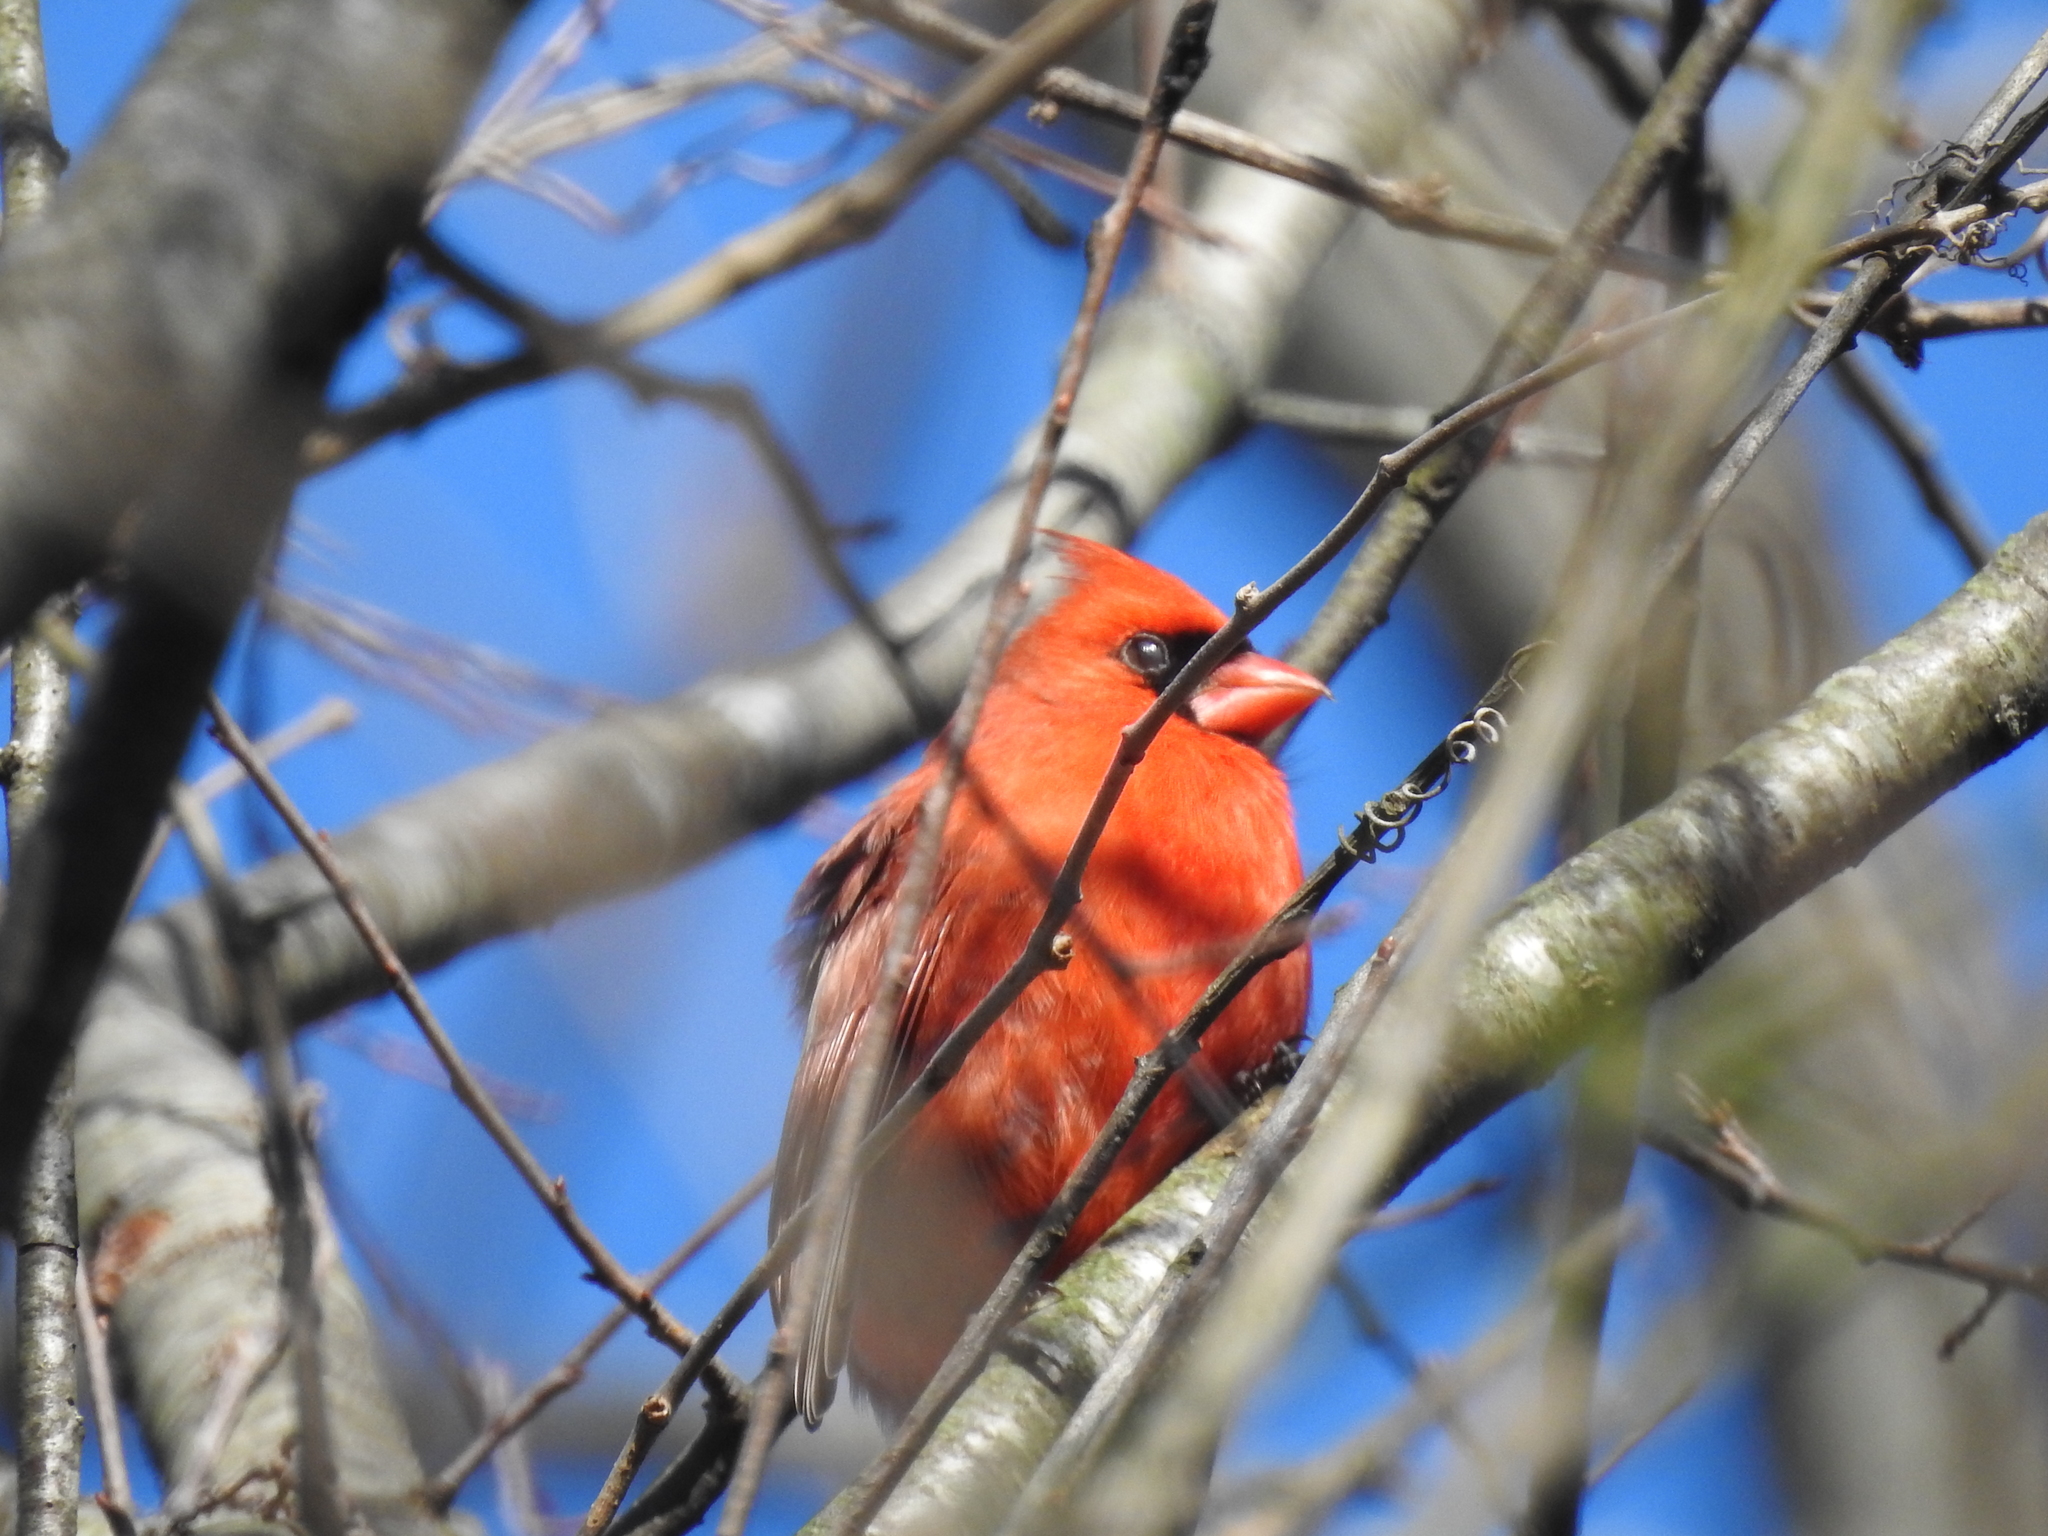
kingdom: Animalia
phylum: Chordata
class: Aves
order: Passeriformes
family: Cardinalidae
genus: Cardinalis
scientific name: Cardinalis cardinalis
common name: Northern cardinal
